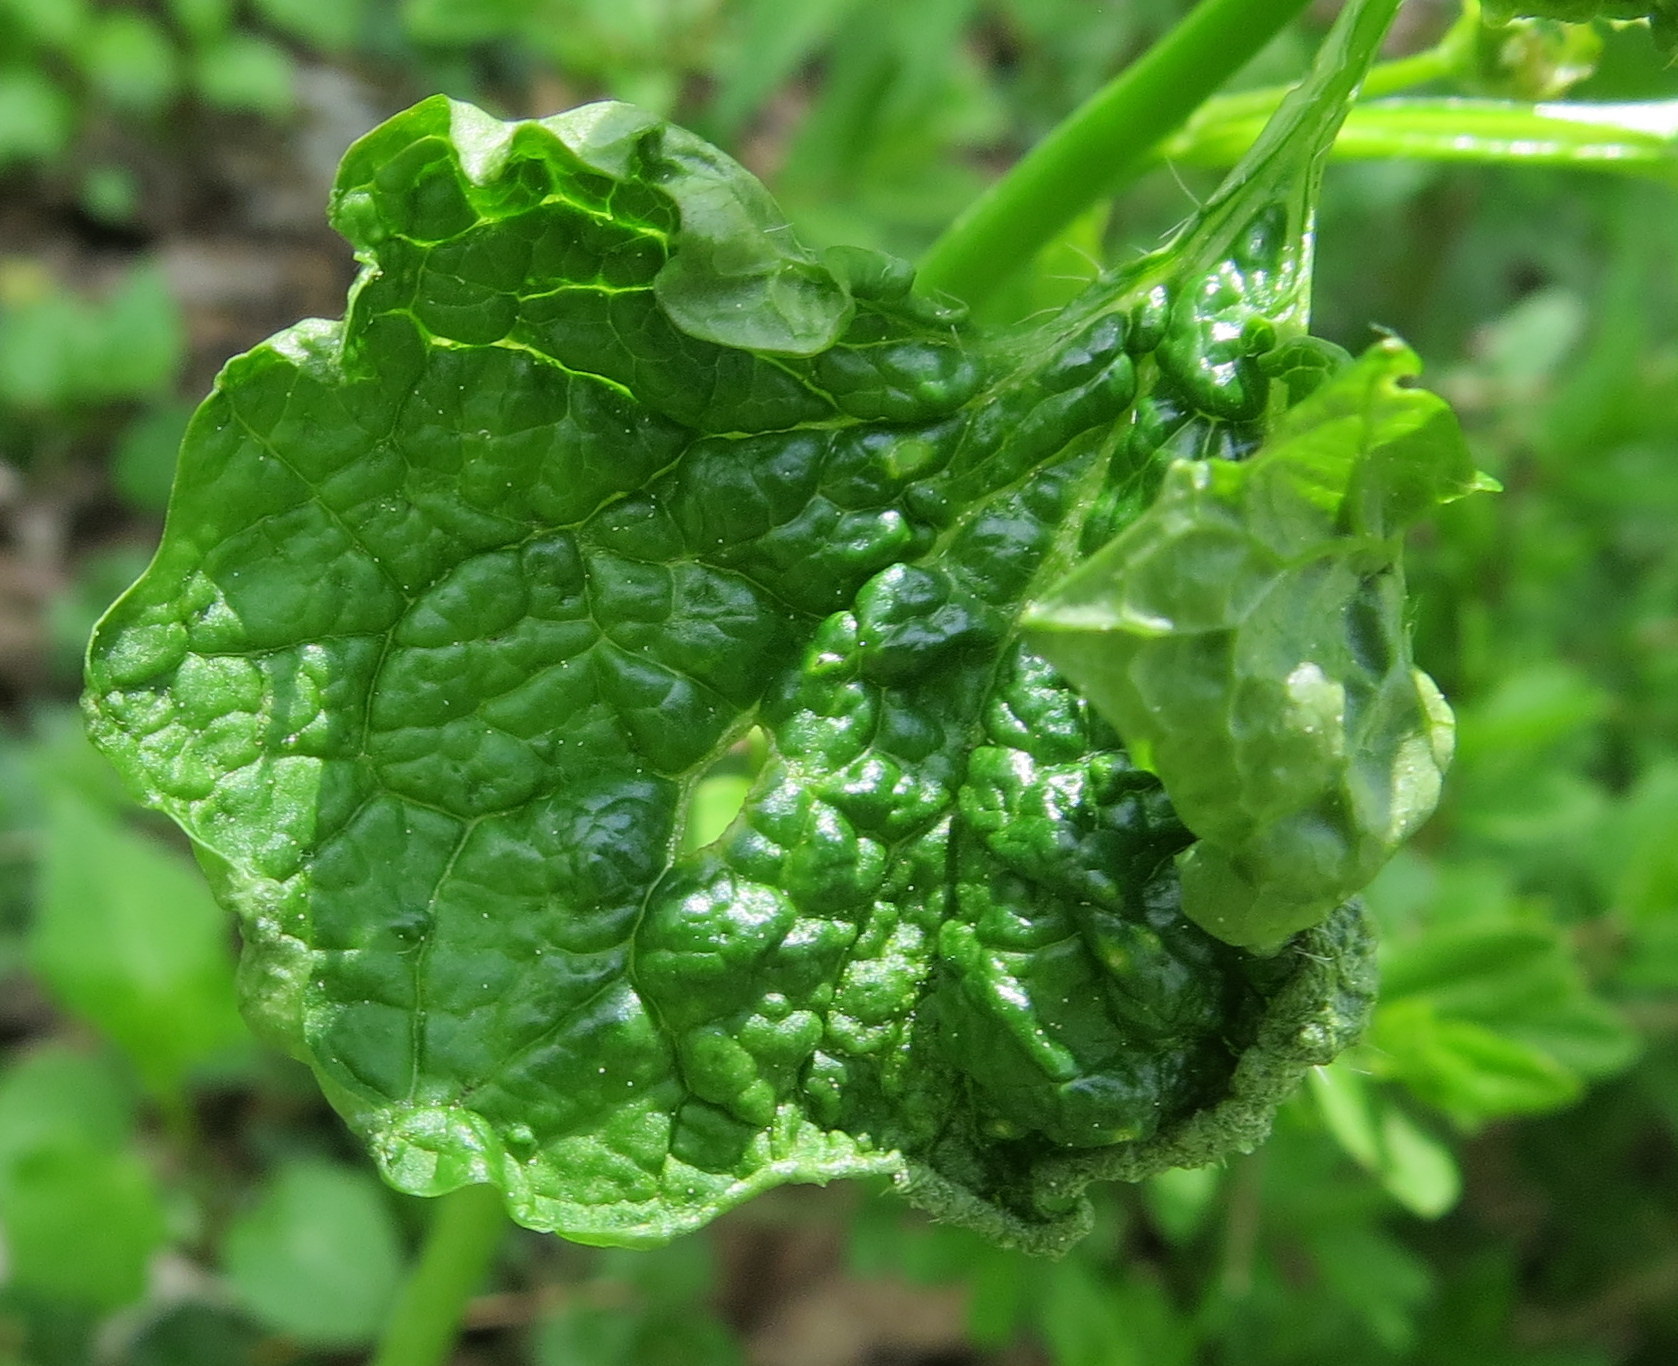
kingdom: Viruses
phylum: Kitrinoviricota
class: Tolucaviricetes
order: Tolivirales
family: Tombusviridae
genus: Betacarmovirus
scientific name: Betacarmovirus brassicae
